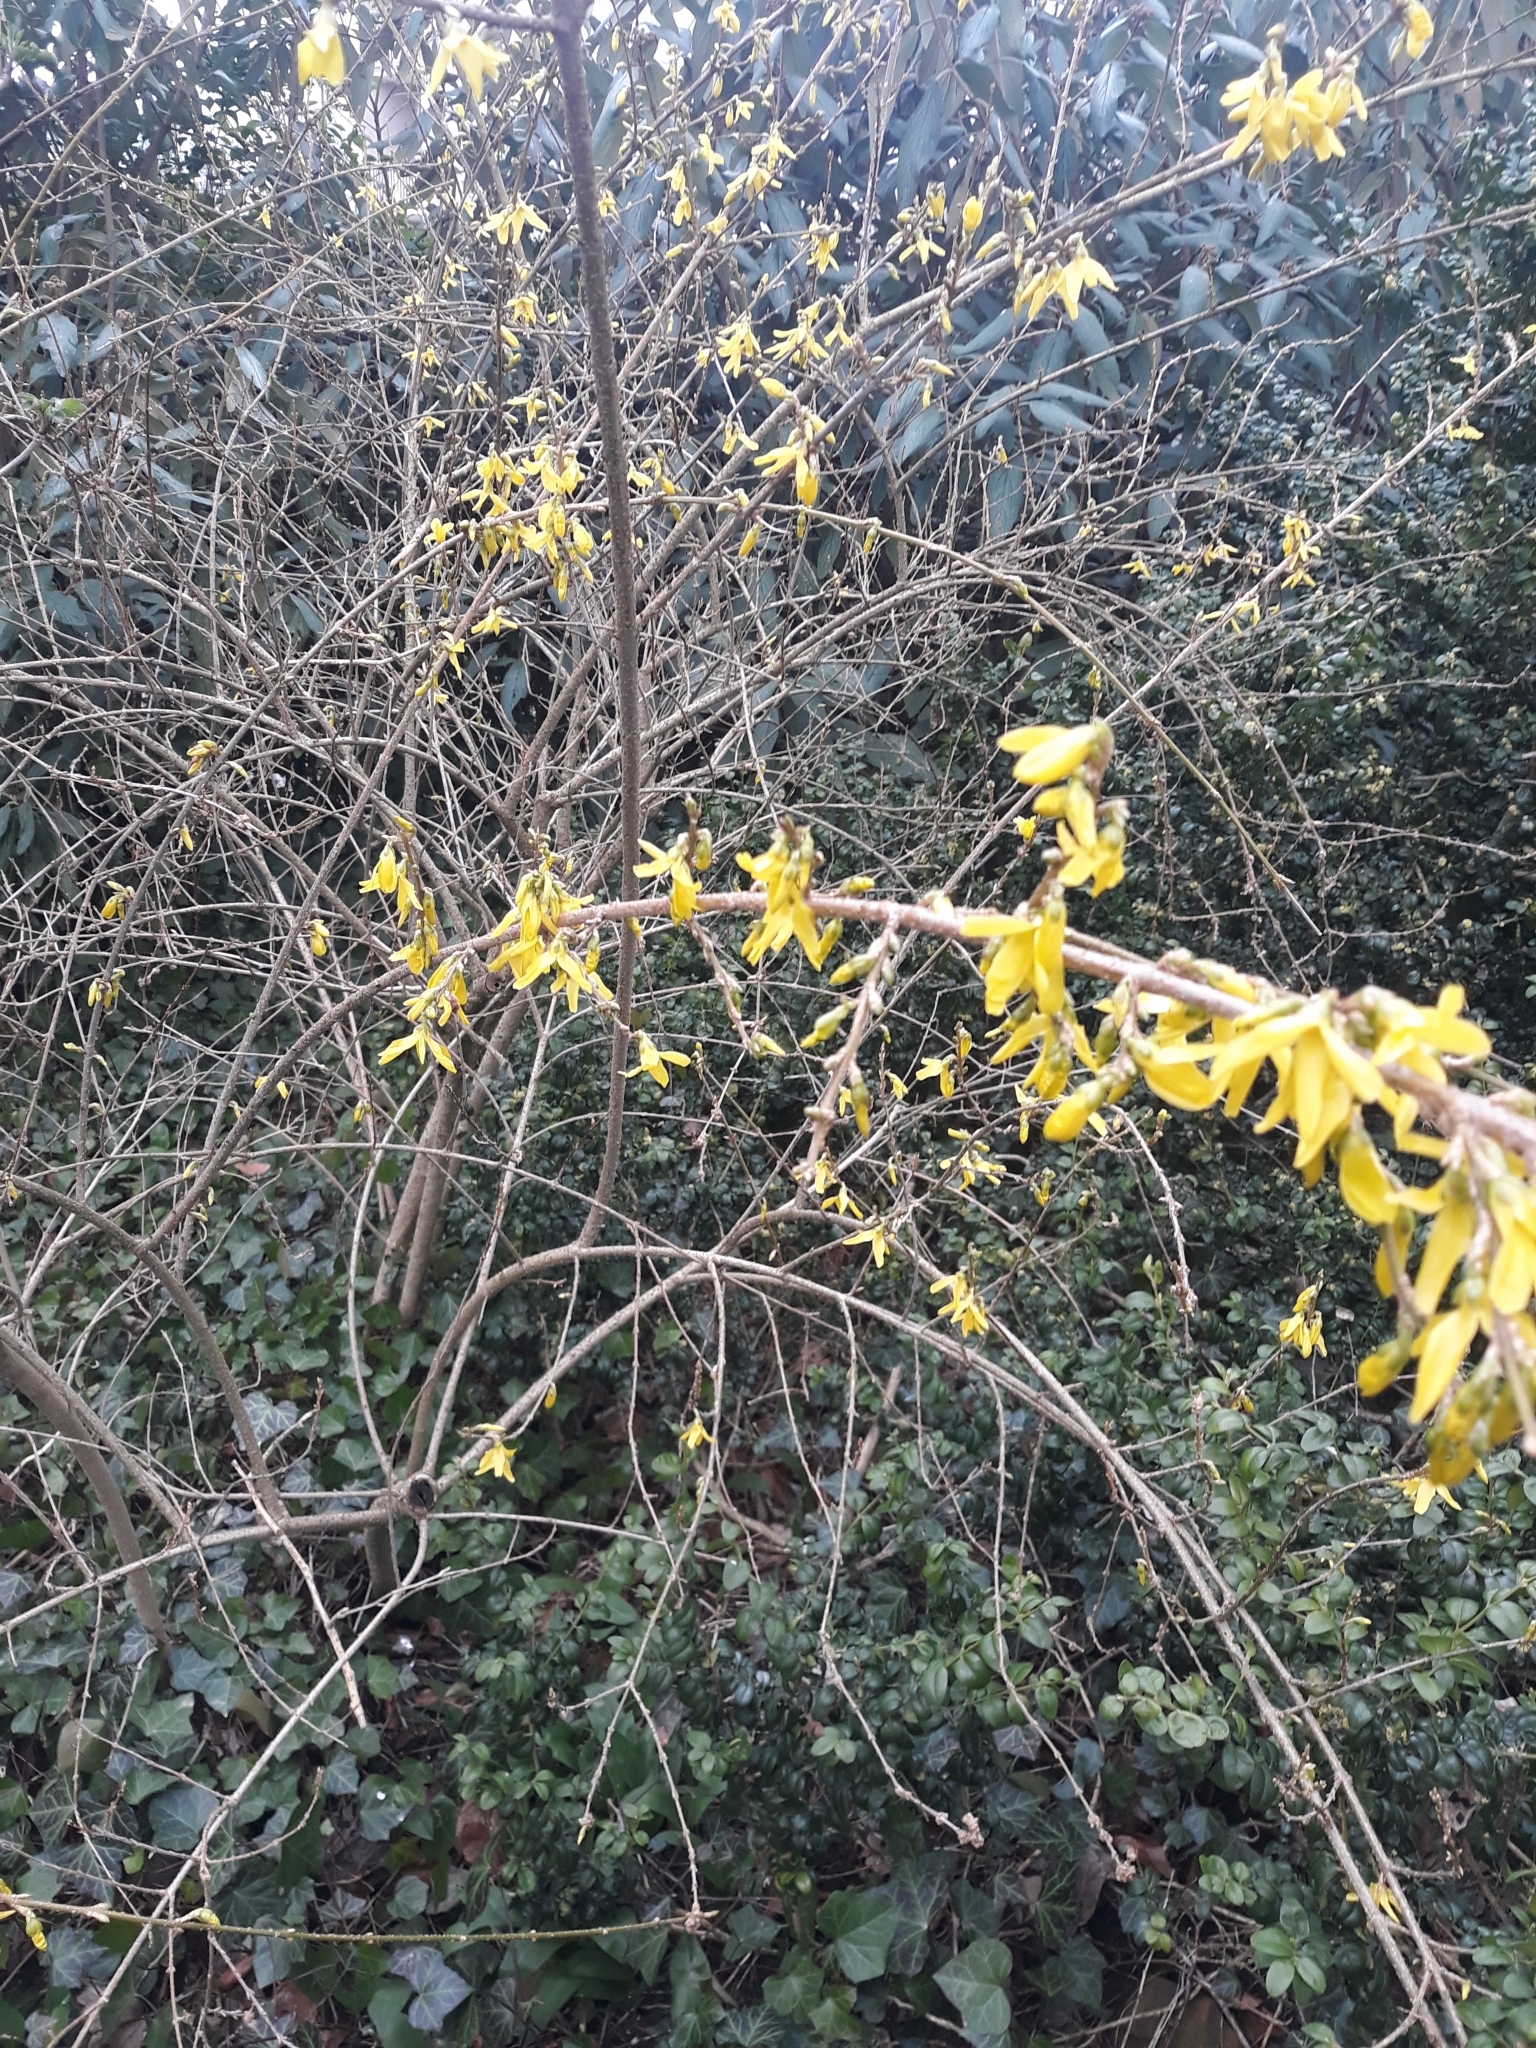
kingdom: Plantae
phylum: Tracheophyta
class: Magnoliopsida
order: Lamiales
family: Oleaceae
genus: Forsythia
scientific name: Forsythia intermedia
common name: Forsythia
